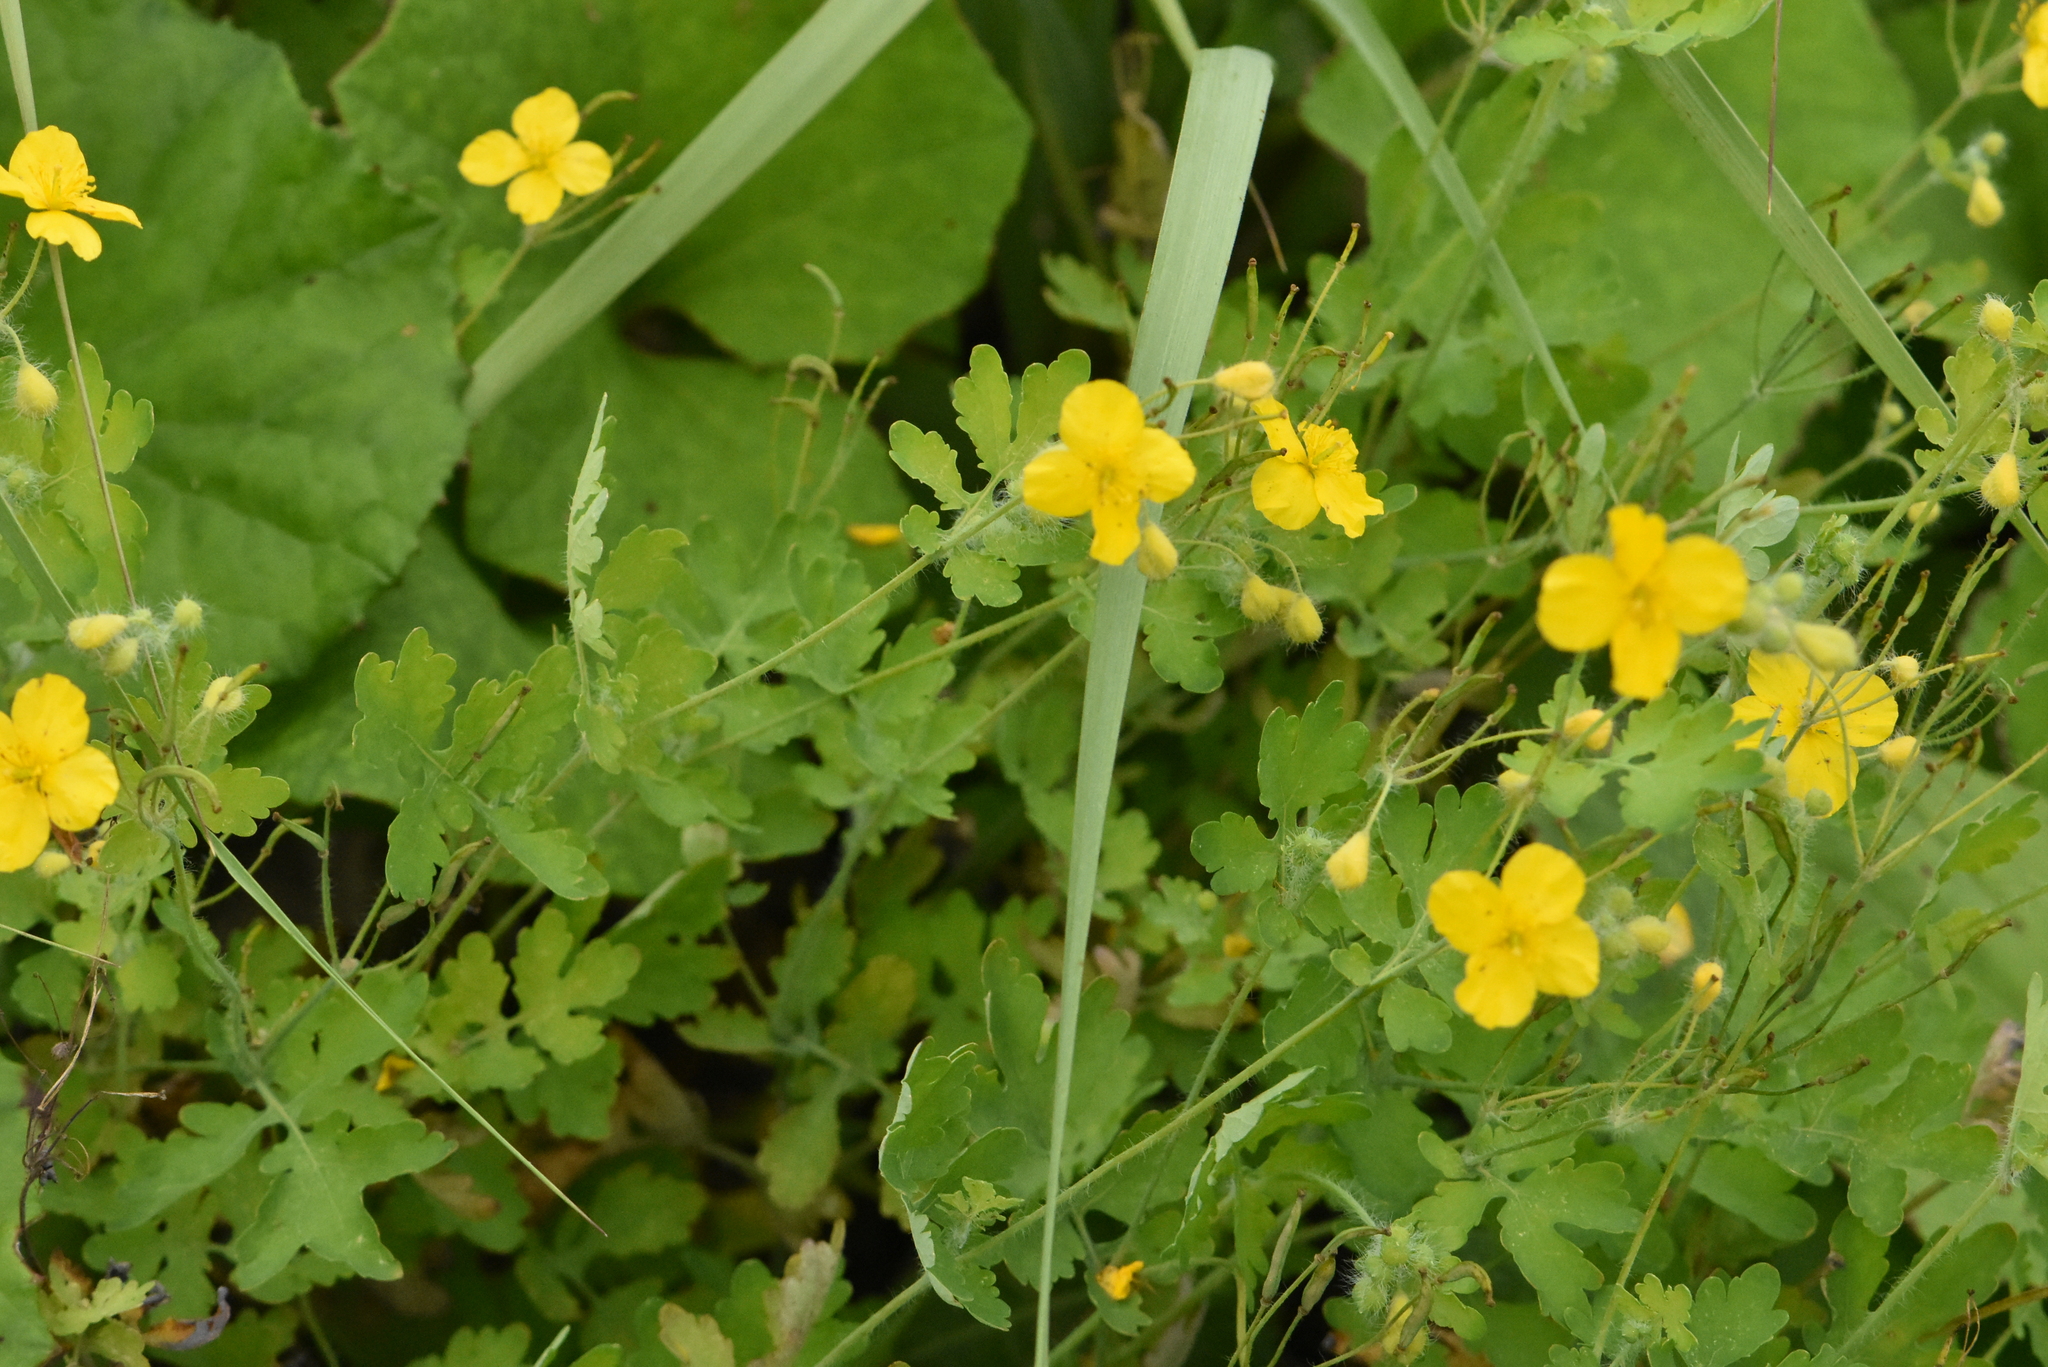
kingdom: Plantae
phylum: Tracheophyta
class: Magnoliopsida
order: Ranunculales
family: Papaveraceae
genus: Chelidonium
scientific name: Chelidonium majus
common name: Greater celandine
